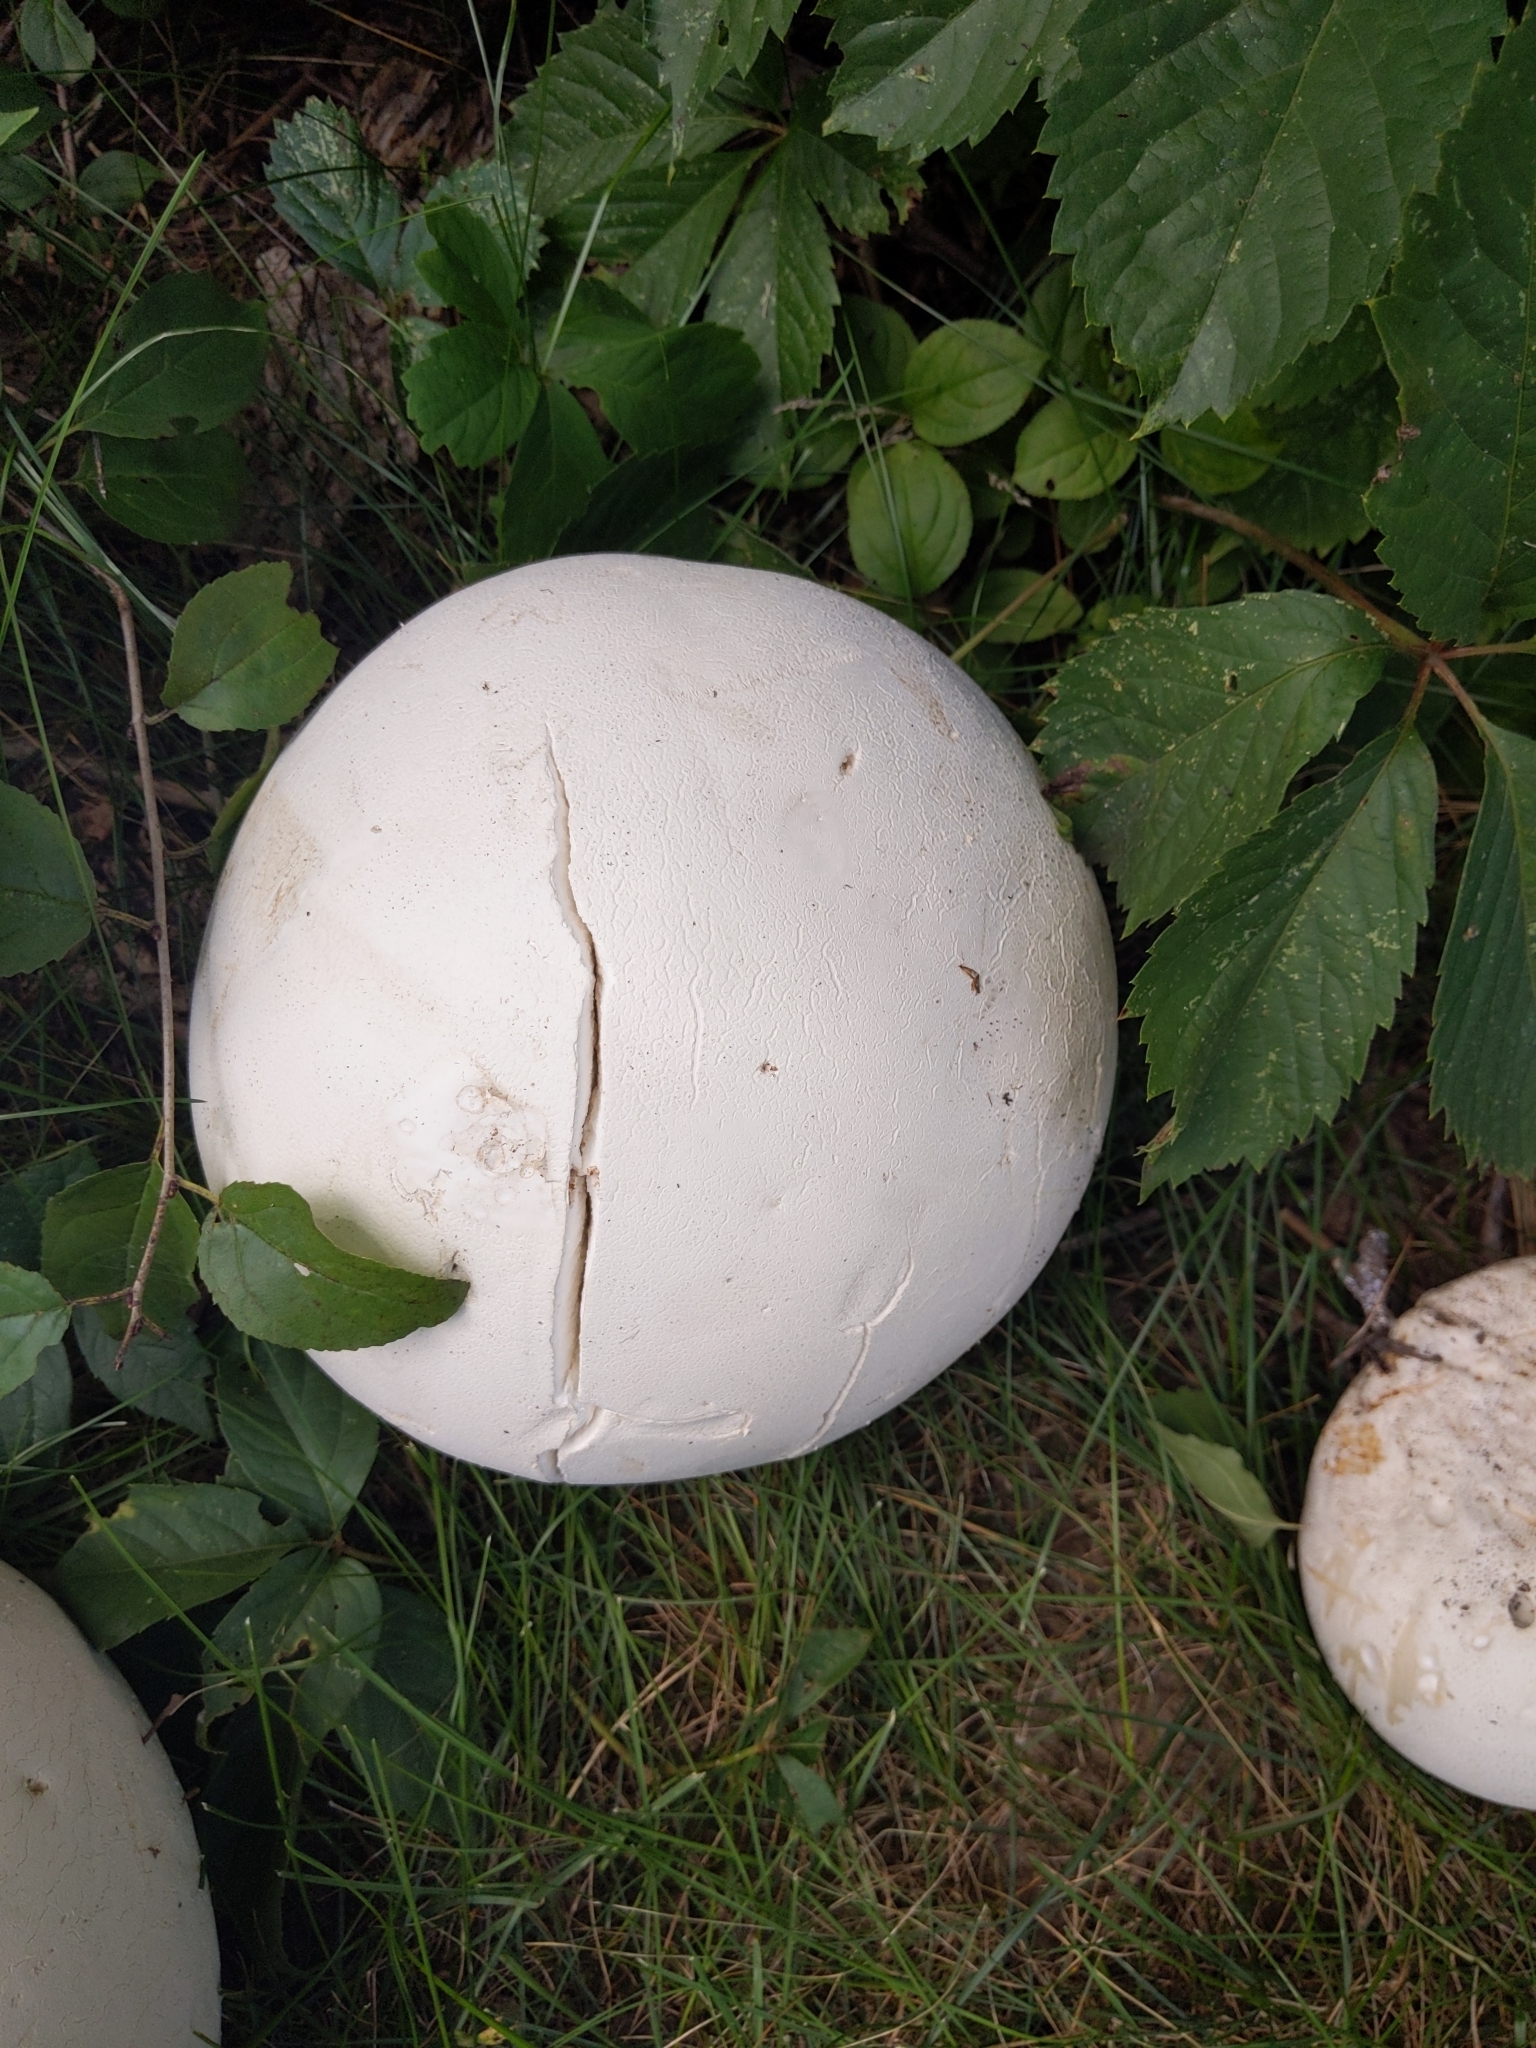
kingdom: Fungi
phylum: Basidiomycota
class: Agaricomycetes
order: Agaricales
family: Lycoperdaceae
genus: Calvatia
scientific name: Calvatia gigantea
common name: Giant puffball
